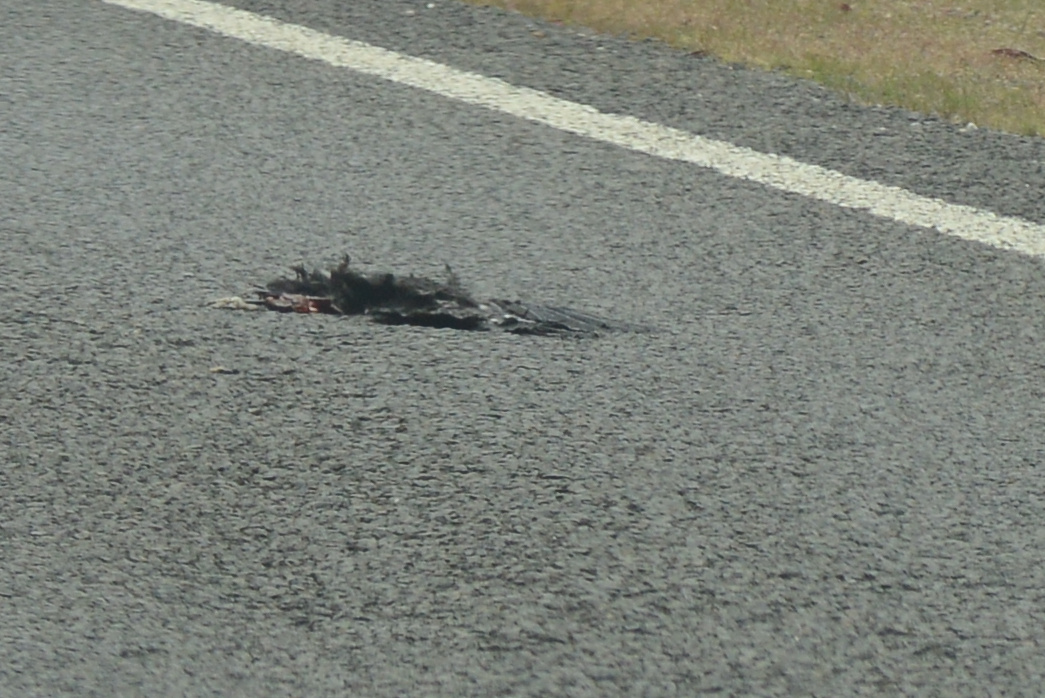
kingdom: Animalia
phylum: Chordata
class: Aves
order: Passeriformes
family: Corvidae
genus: Corvus
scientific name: Corvus tasmanicus
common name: Forest raven
